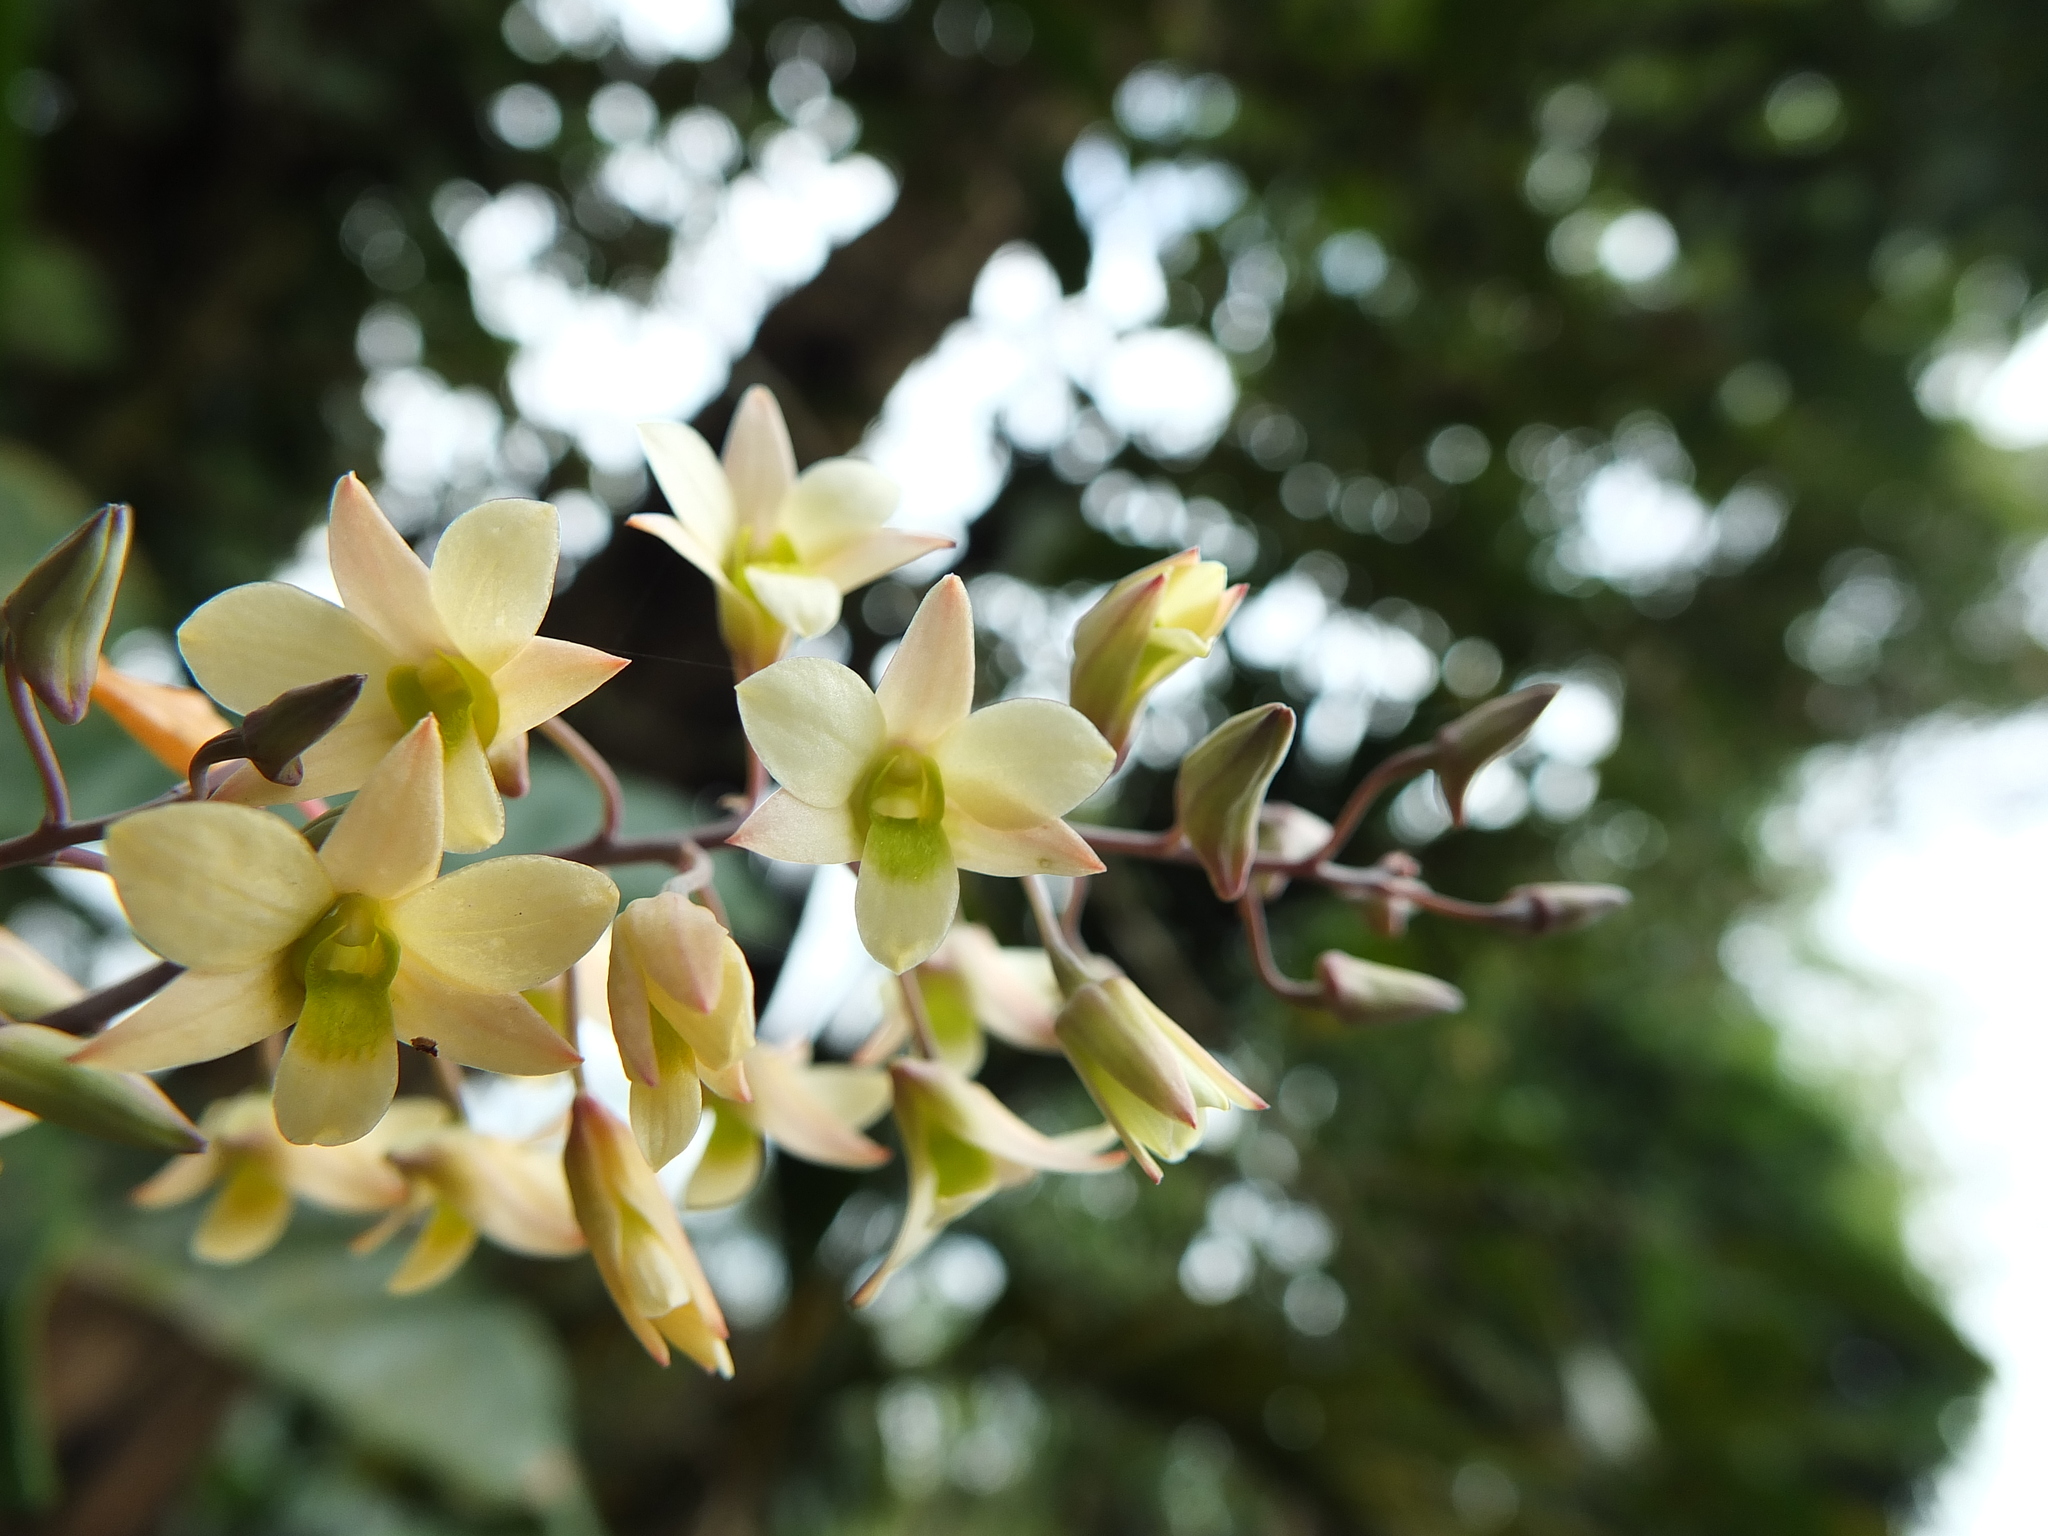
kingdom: Plantae
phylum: Tracheophyta
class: Liliopsida
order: Asparagales
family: Orchidaceae
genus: Dendrobium
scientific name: Dendrobium ovatum
